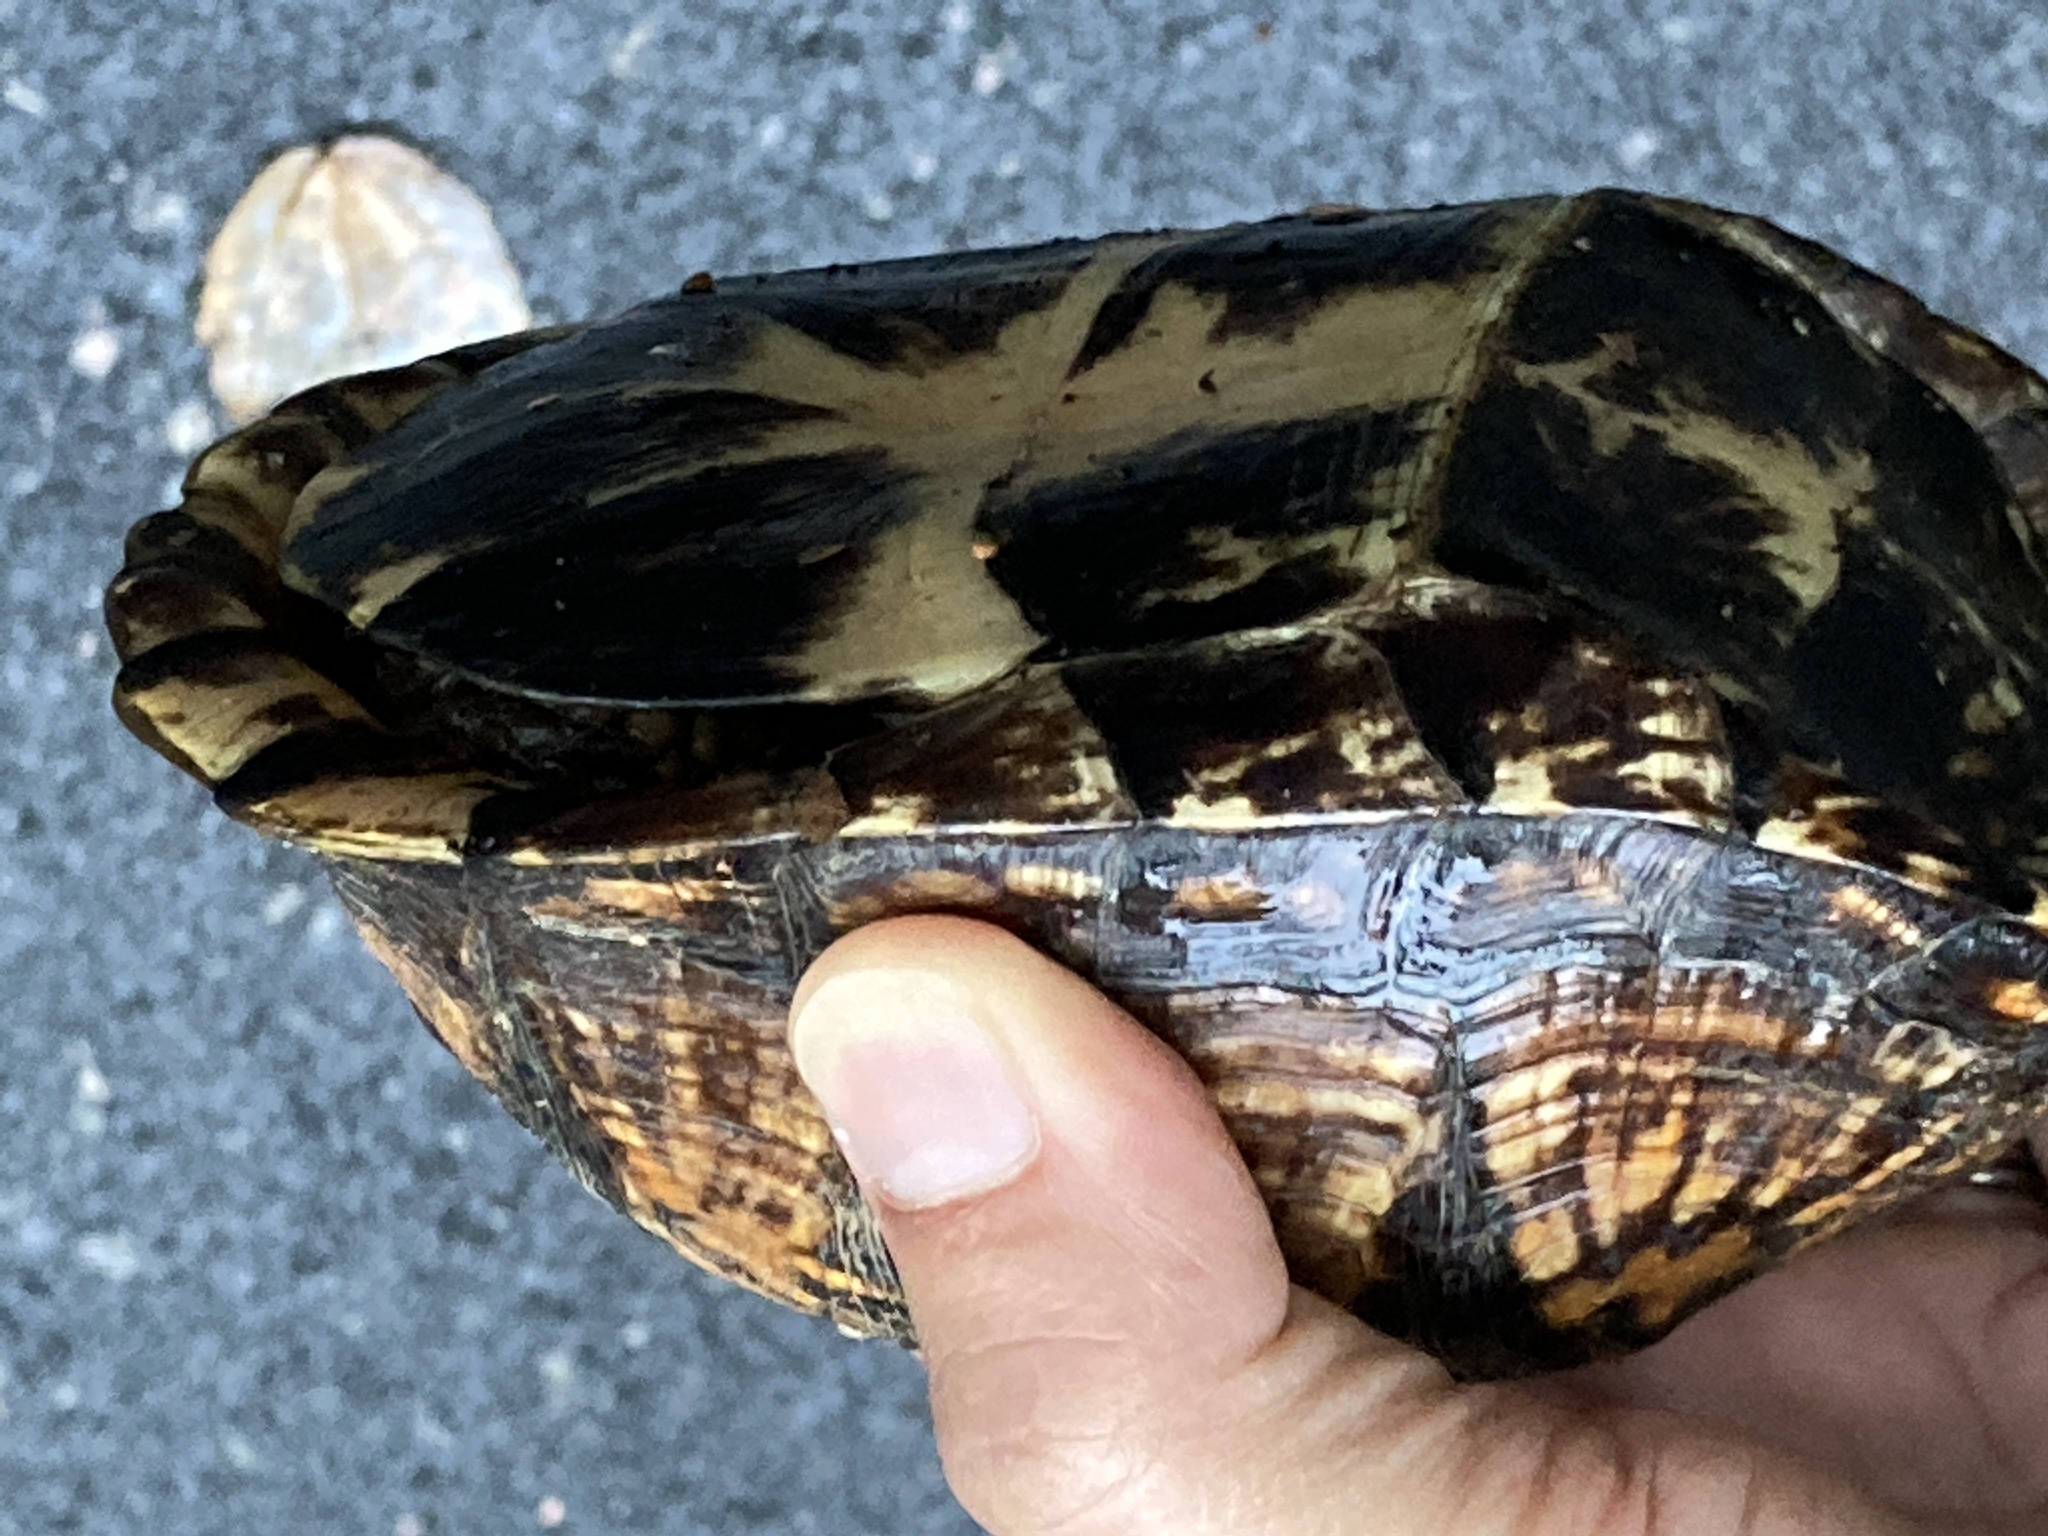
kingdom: Animalia
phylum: Chordata
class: Testudines
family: Emydidae
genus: Terrapene
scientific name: Terrapene carolina
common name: Common box turtle
